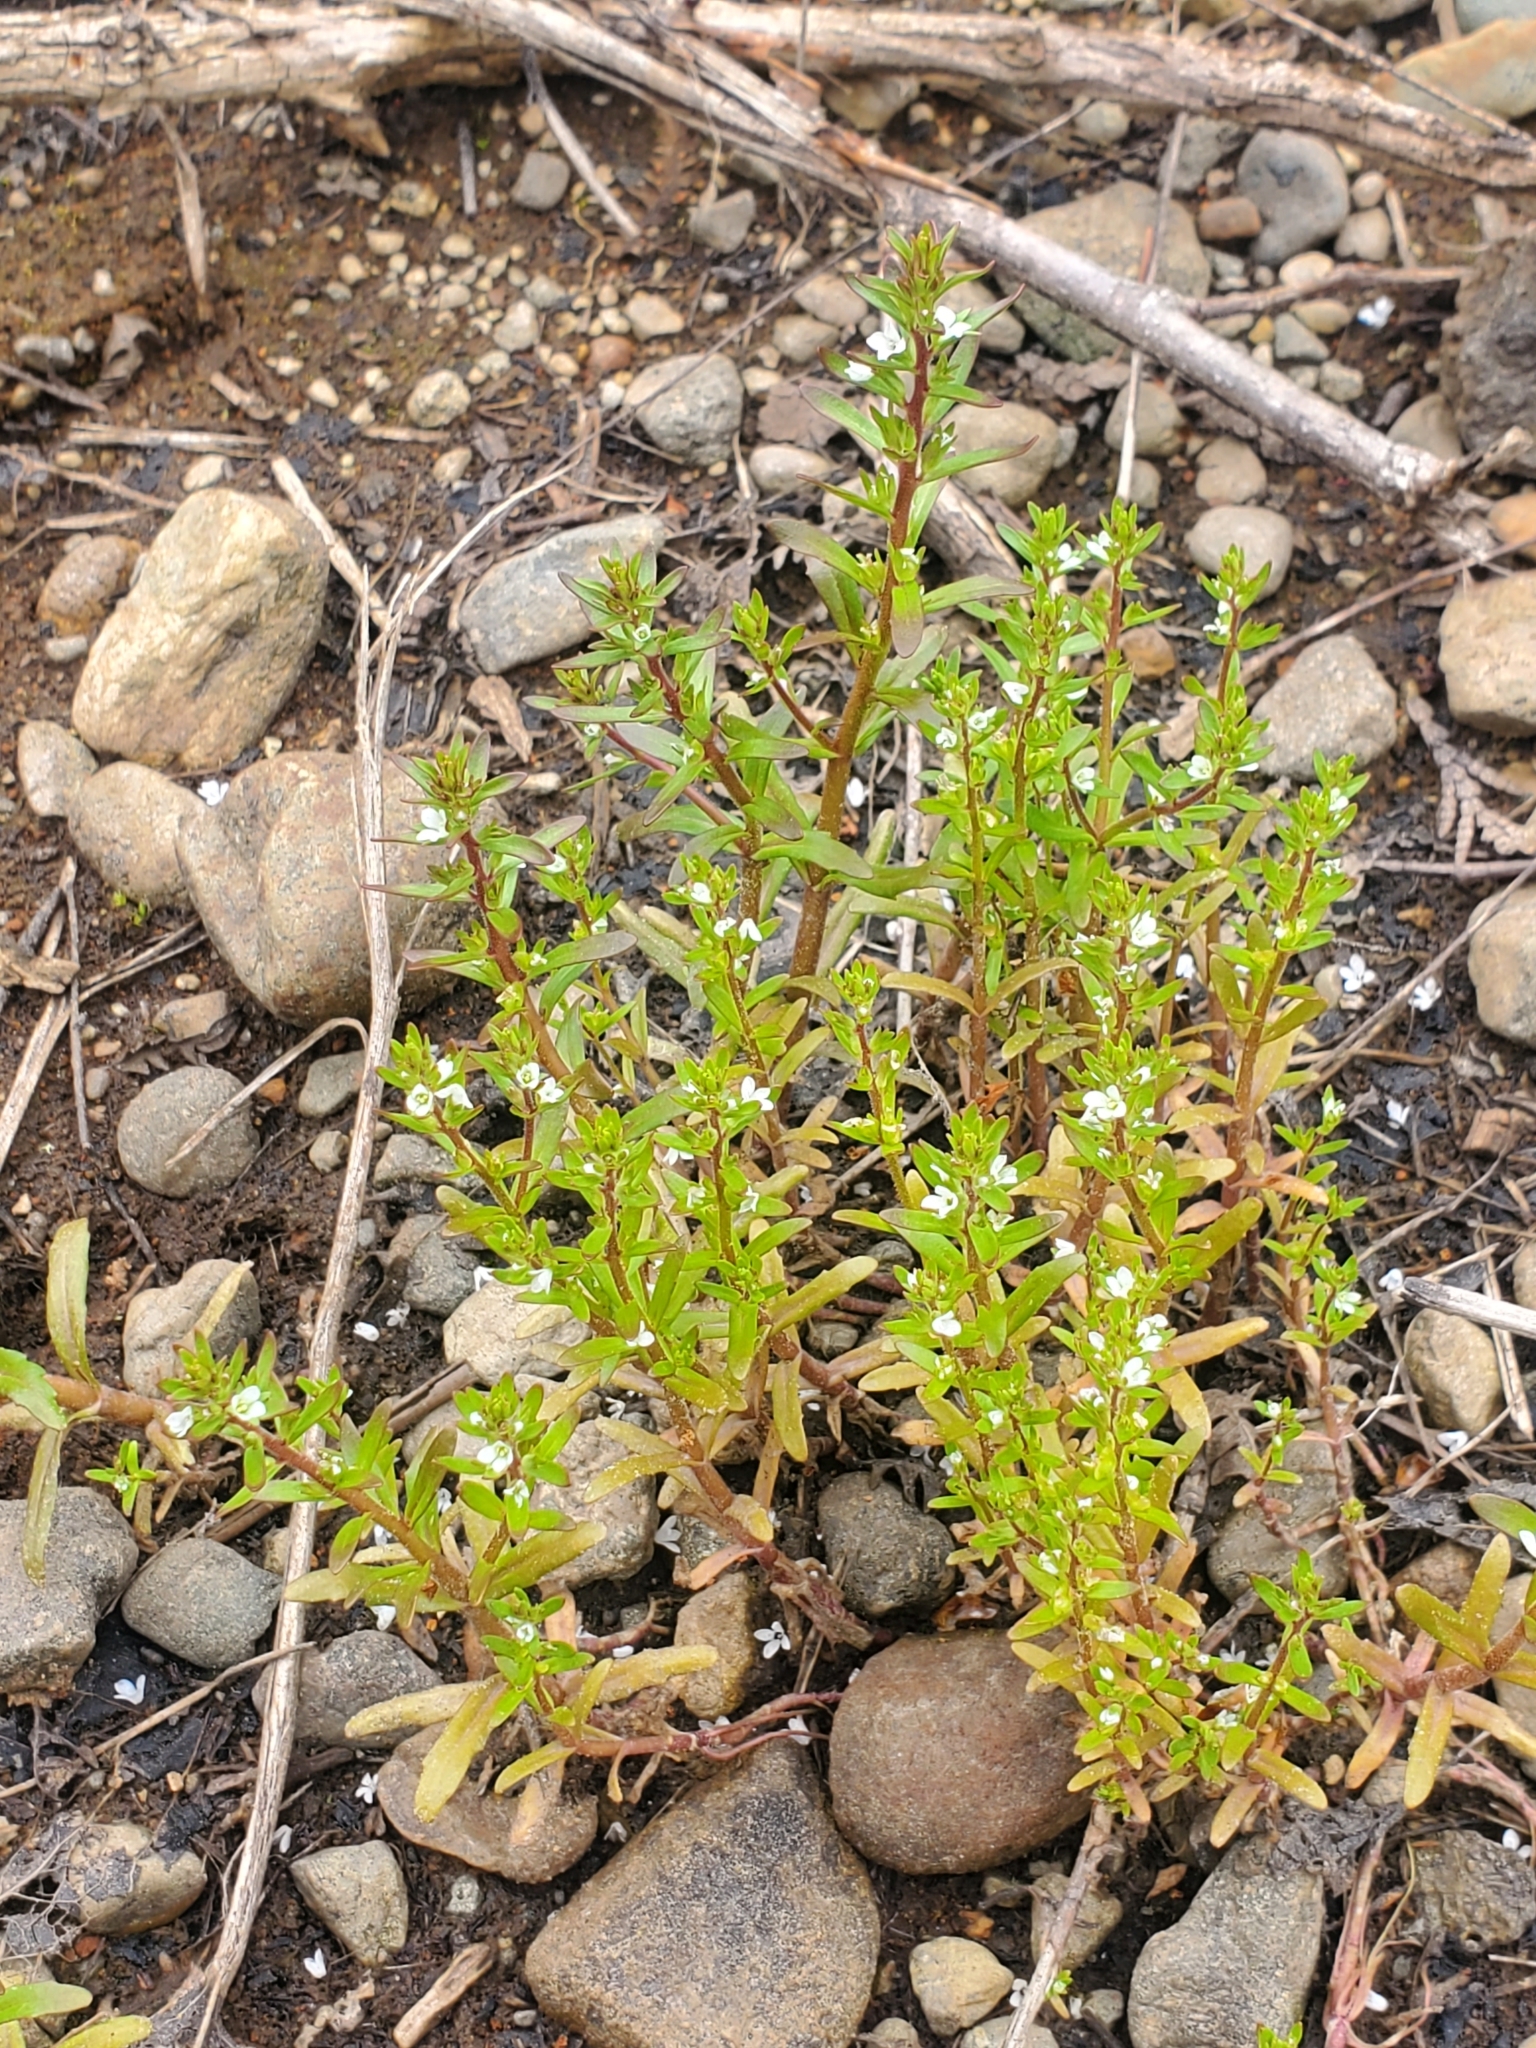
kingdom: Plantae
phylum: Tracheophyta
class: Magnoliopsida
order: Lamiales
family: Plantaginaceae
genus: Veronica
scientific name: Veronica peregrina
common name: Neckweed
